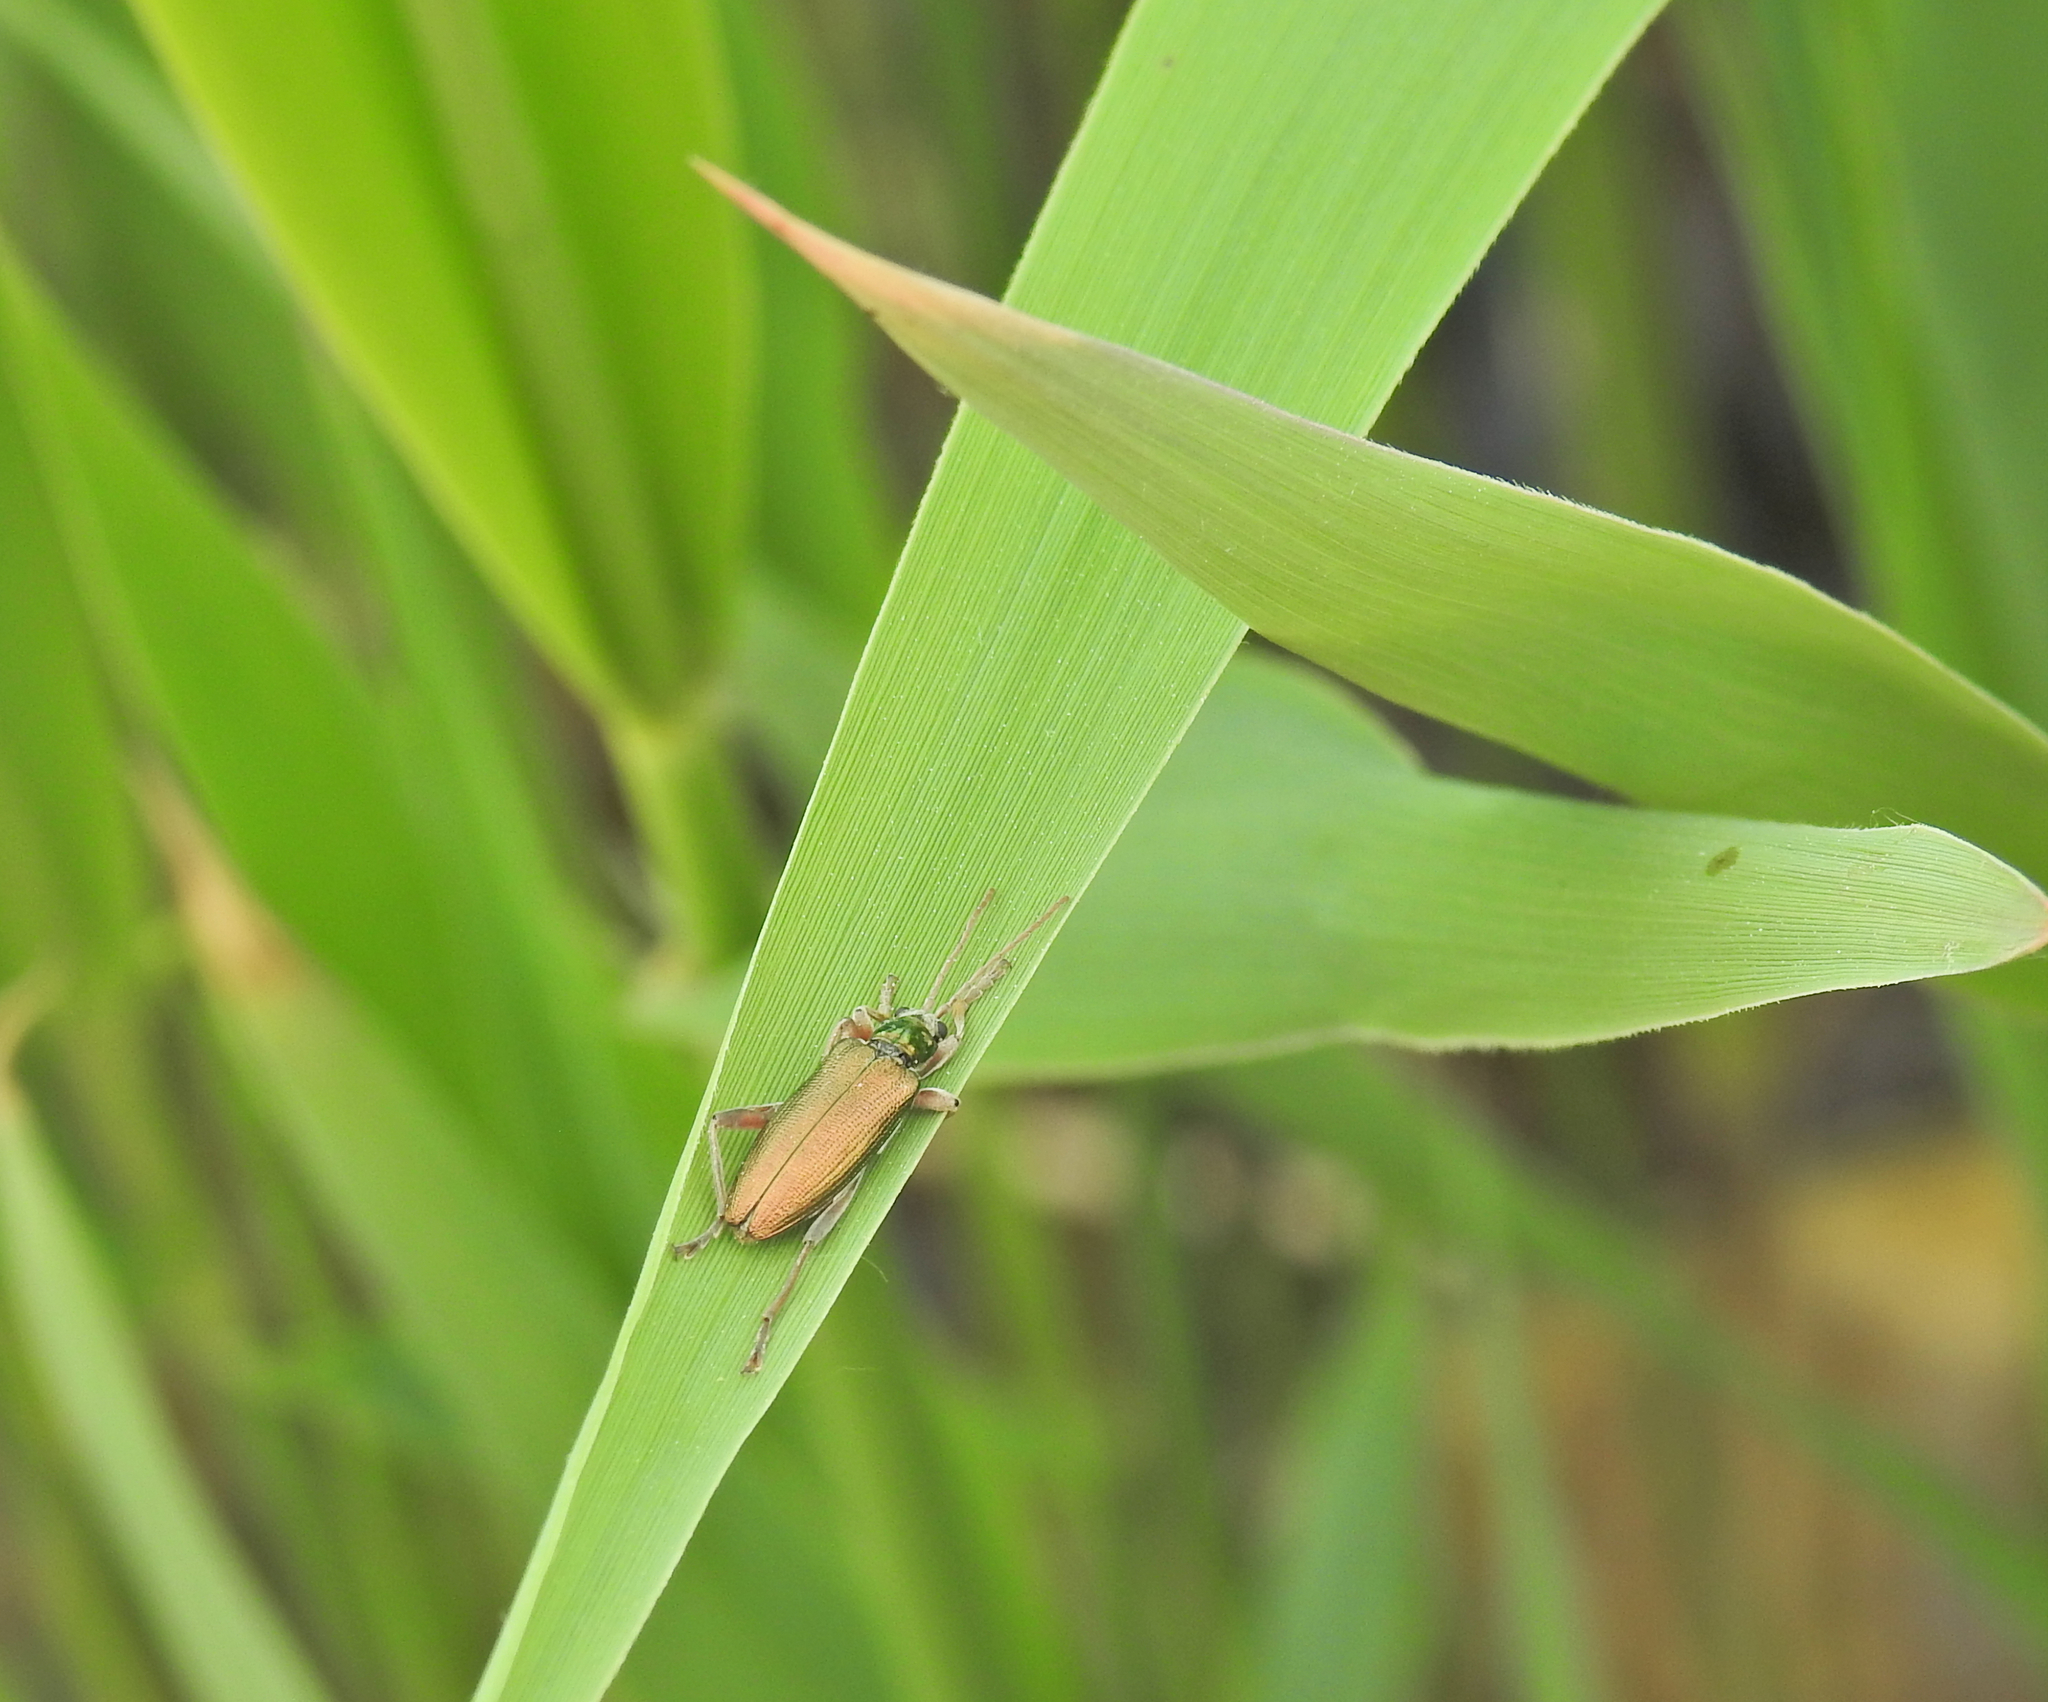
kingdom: Animalia
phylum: Arthropoda
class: Insecta
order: Coleoptera
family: Chrysomelidae
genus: Donacia
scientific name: Donacia clavipes
